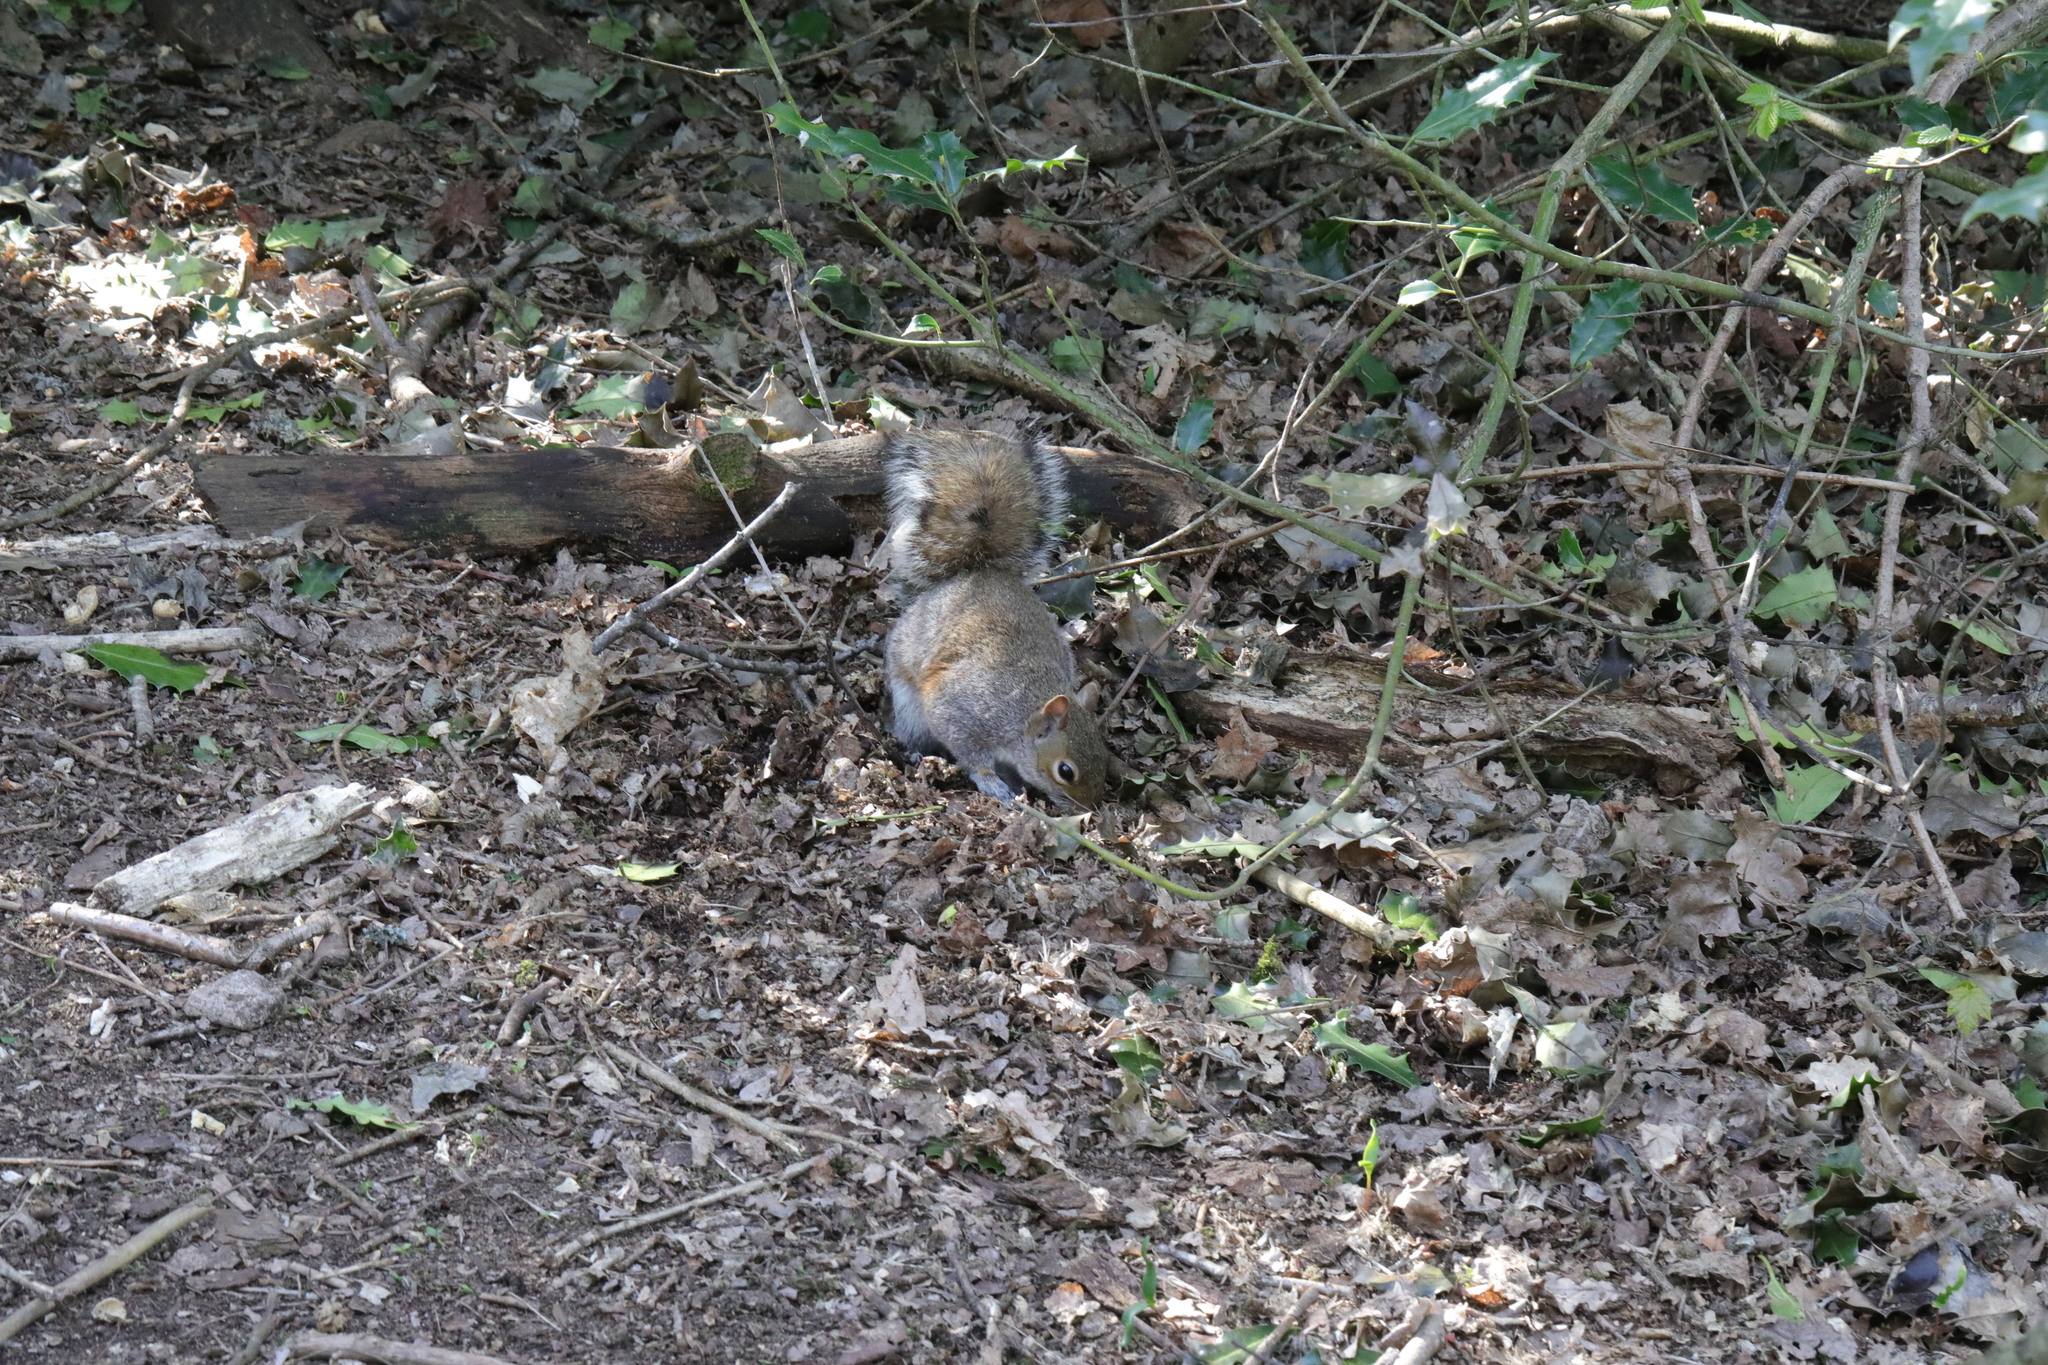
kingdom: Animalia
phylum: Chordata
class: Mammalia
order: Rodentia
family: Sciuridae
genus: Sciurus
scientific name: Sciurus carolinensis
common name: Eastern gray squirrel
